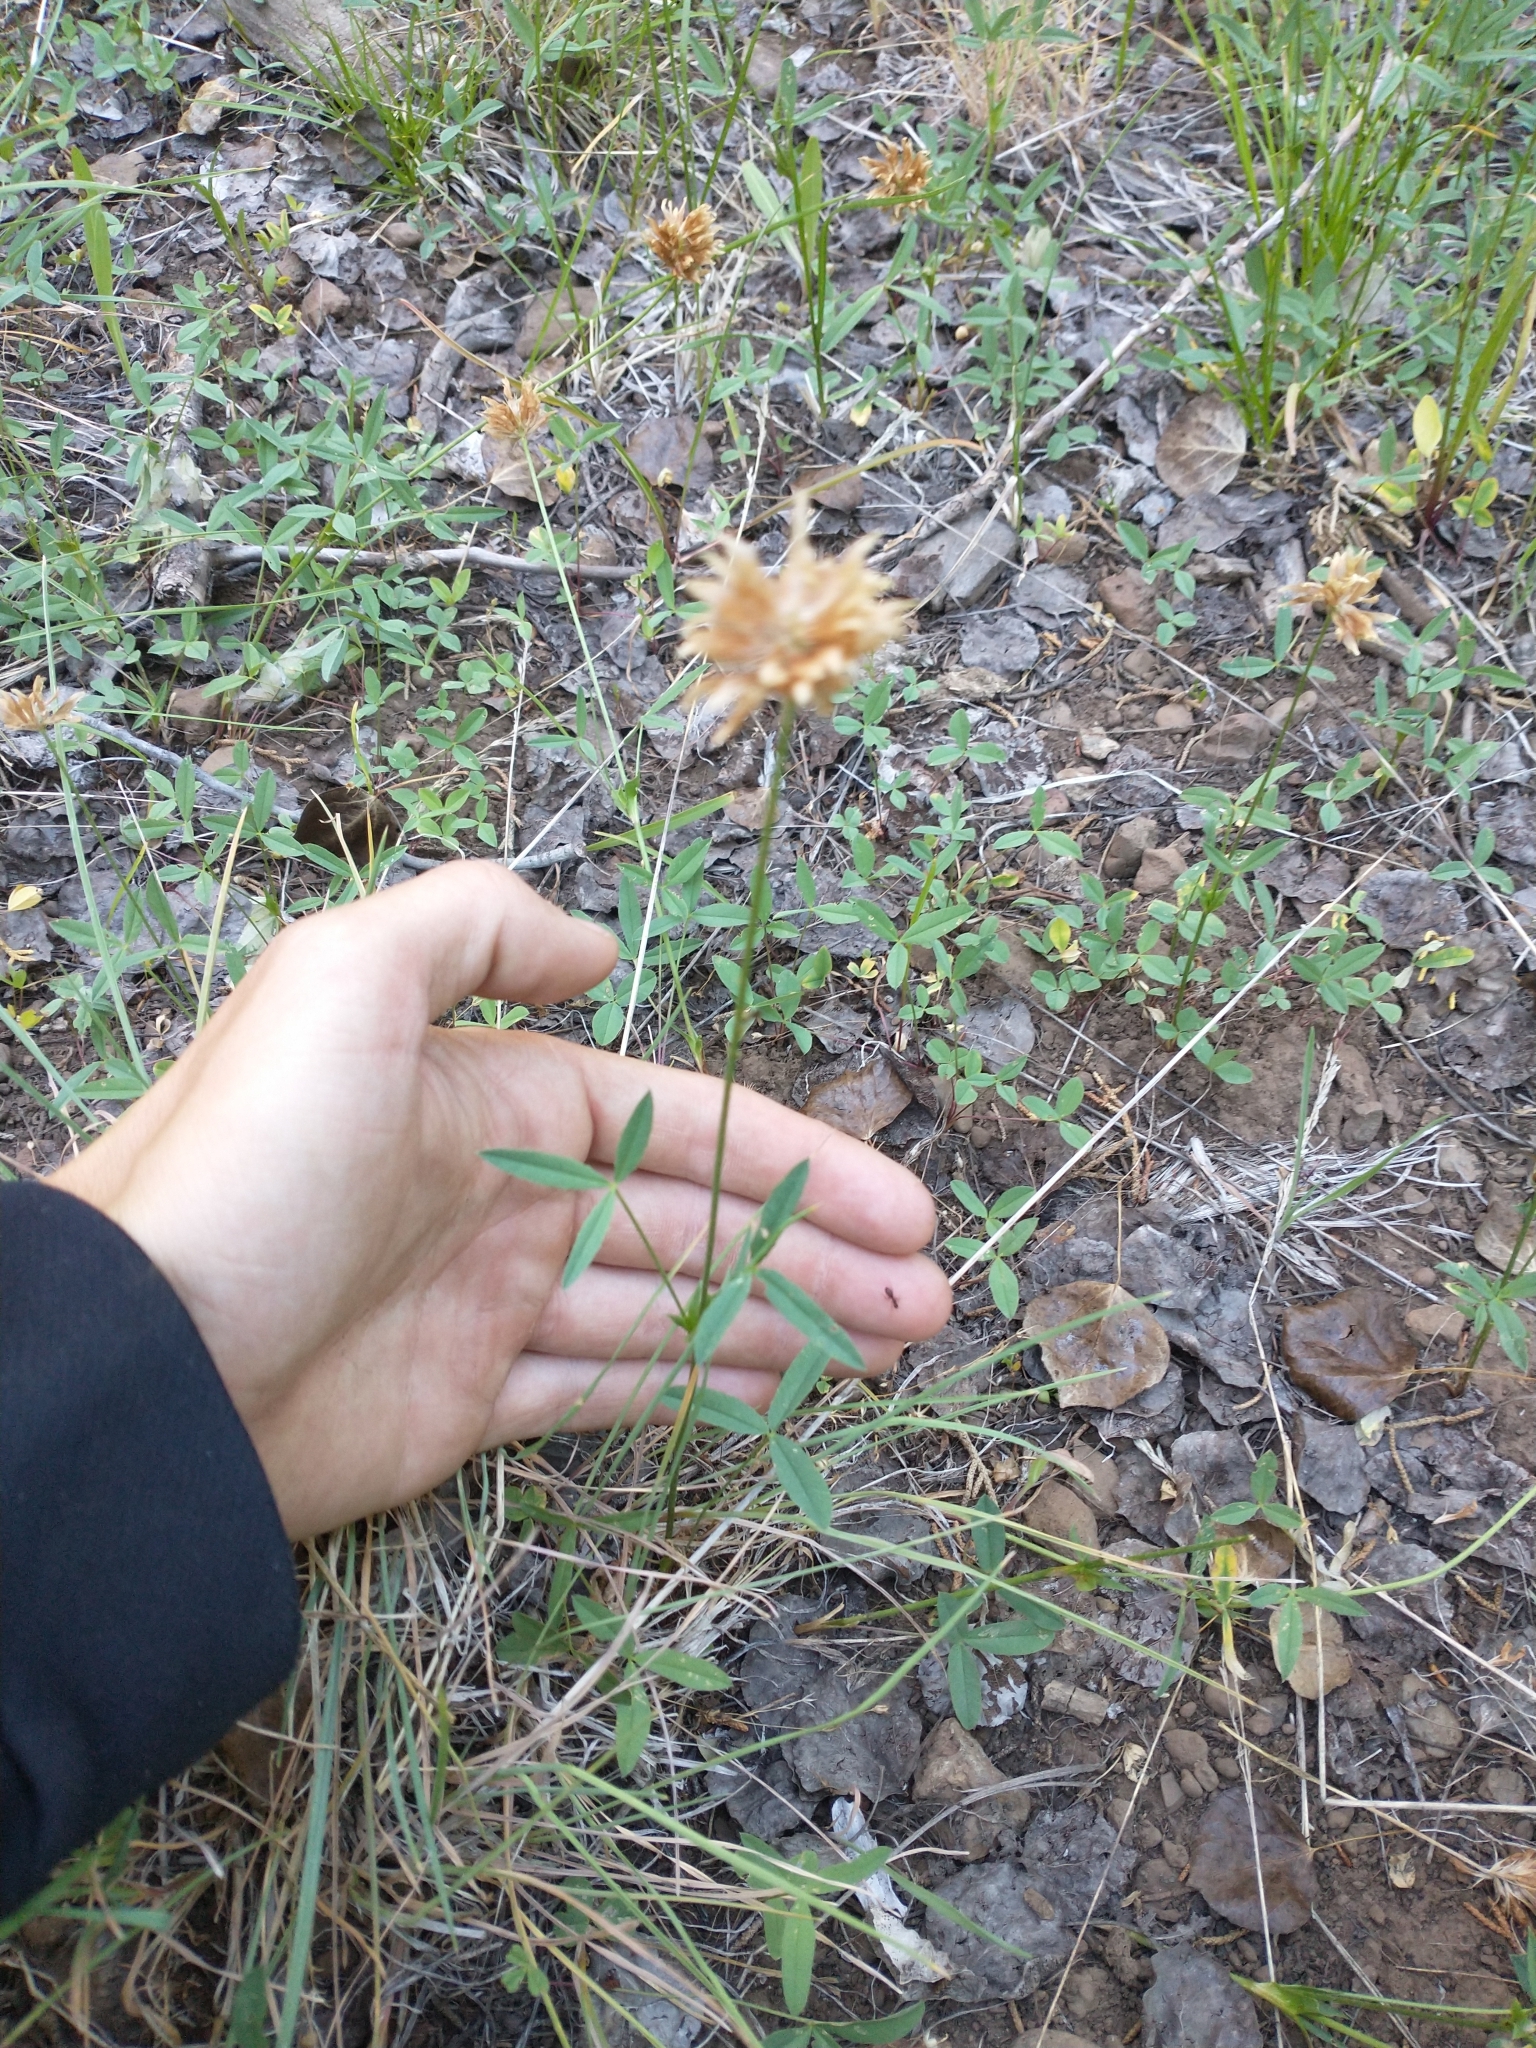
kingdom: Plantae
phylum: Tracheophyta
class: Magnoliopsida
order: Fabales
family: Fabaceae
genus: Trifolium
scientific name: Trifolium longipes
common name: Long-stalk clover
